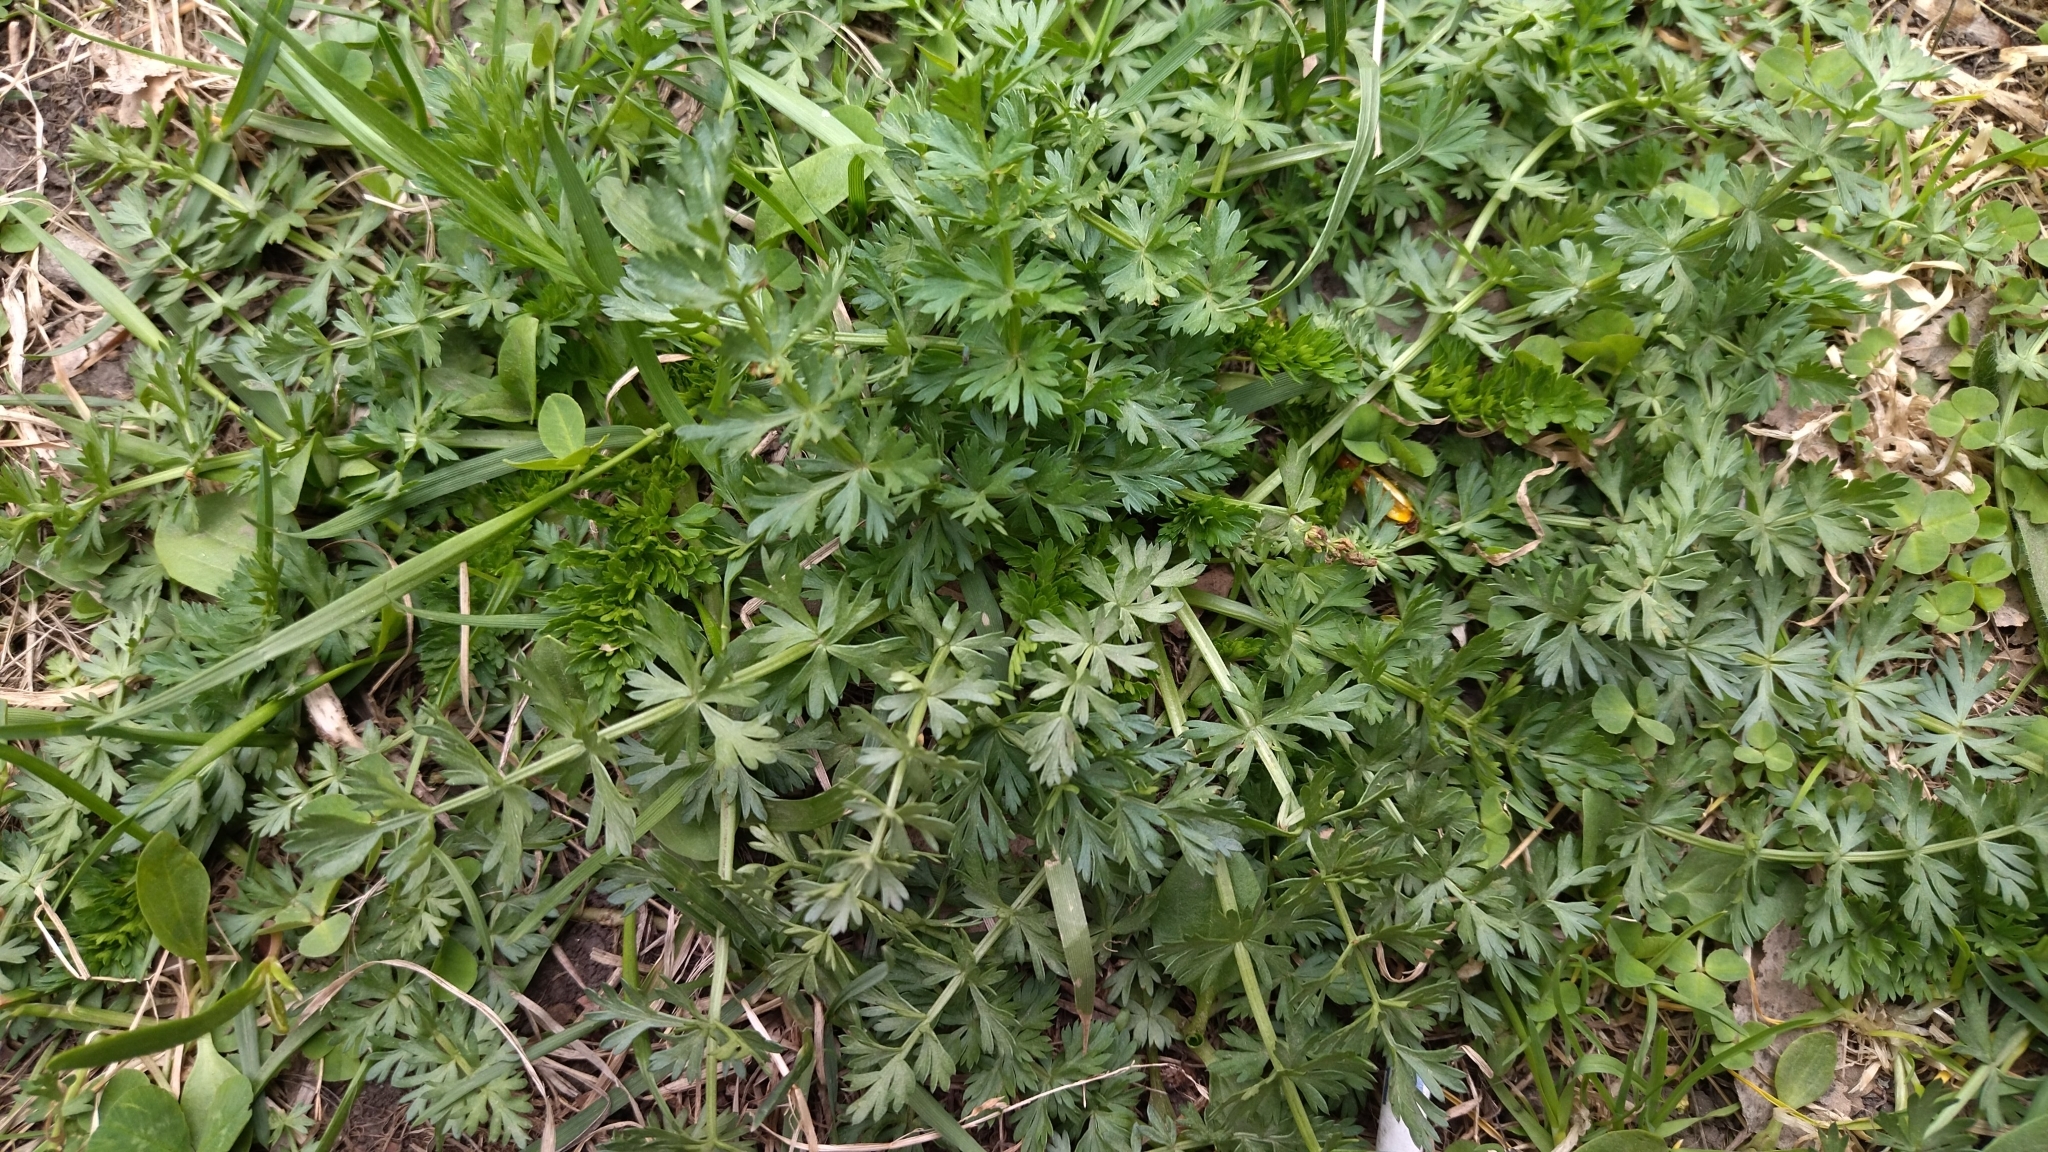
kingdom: Plantae
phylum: Tracheophyta
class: Magnoliopsida
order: Apiales
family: Apiaceae
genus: Carum
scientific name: Carum carvi
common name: Caraway
